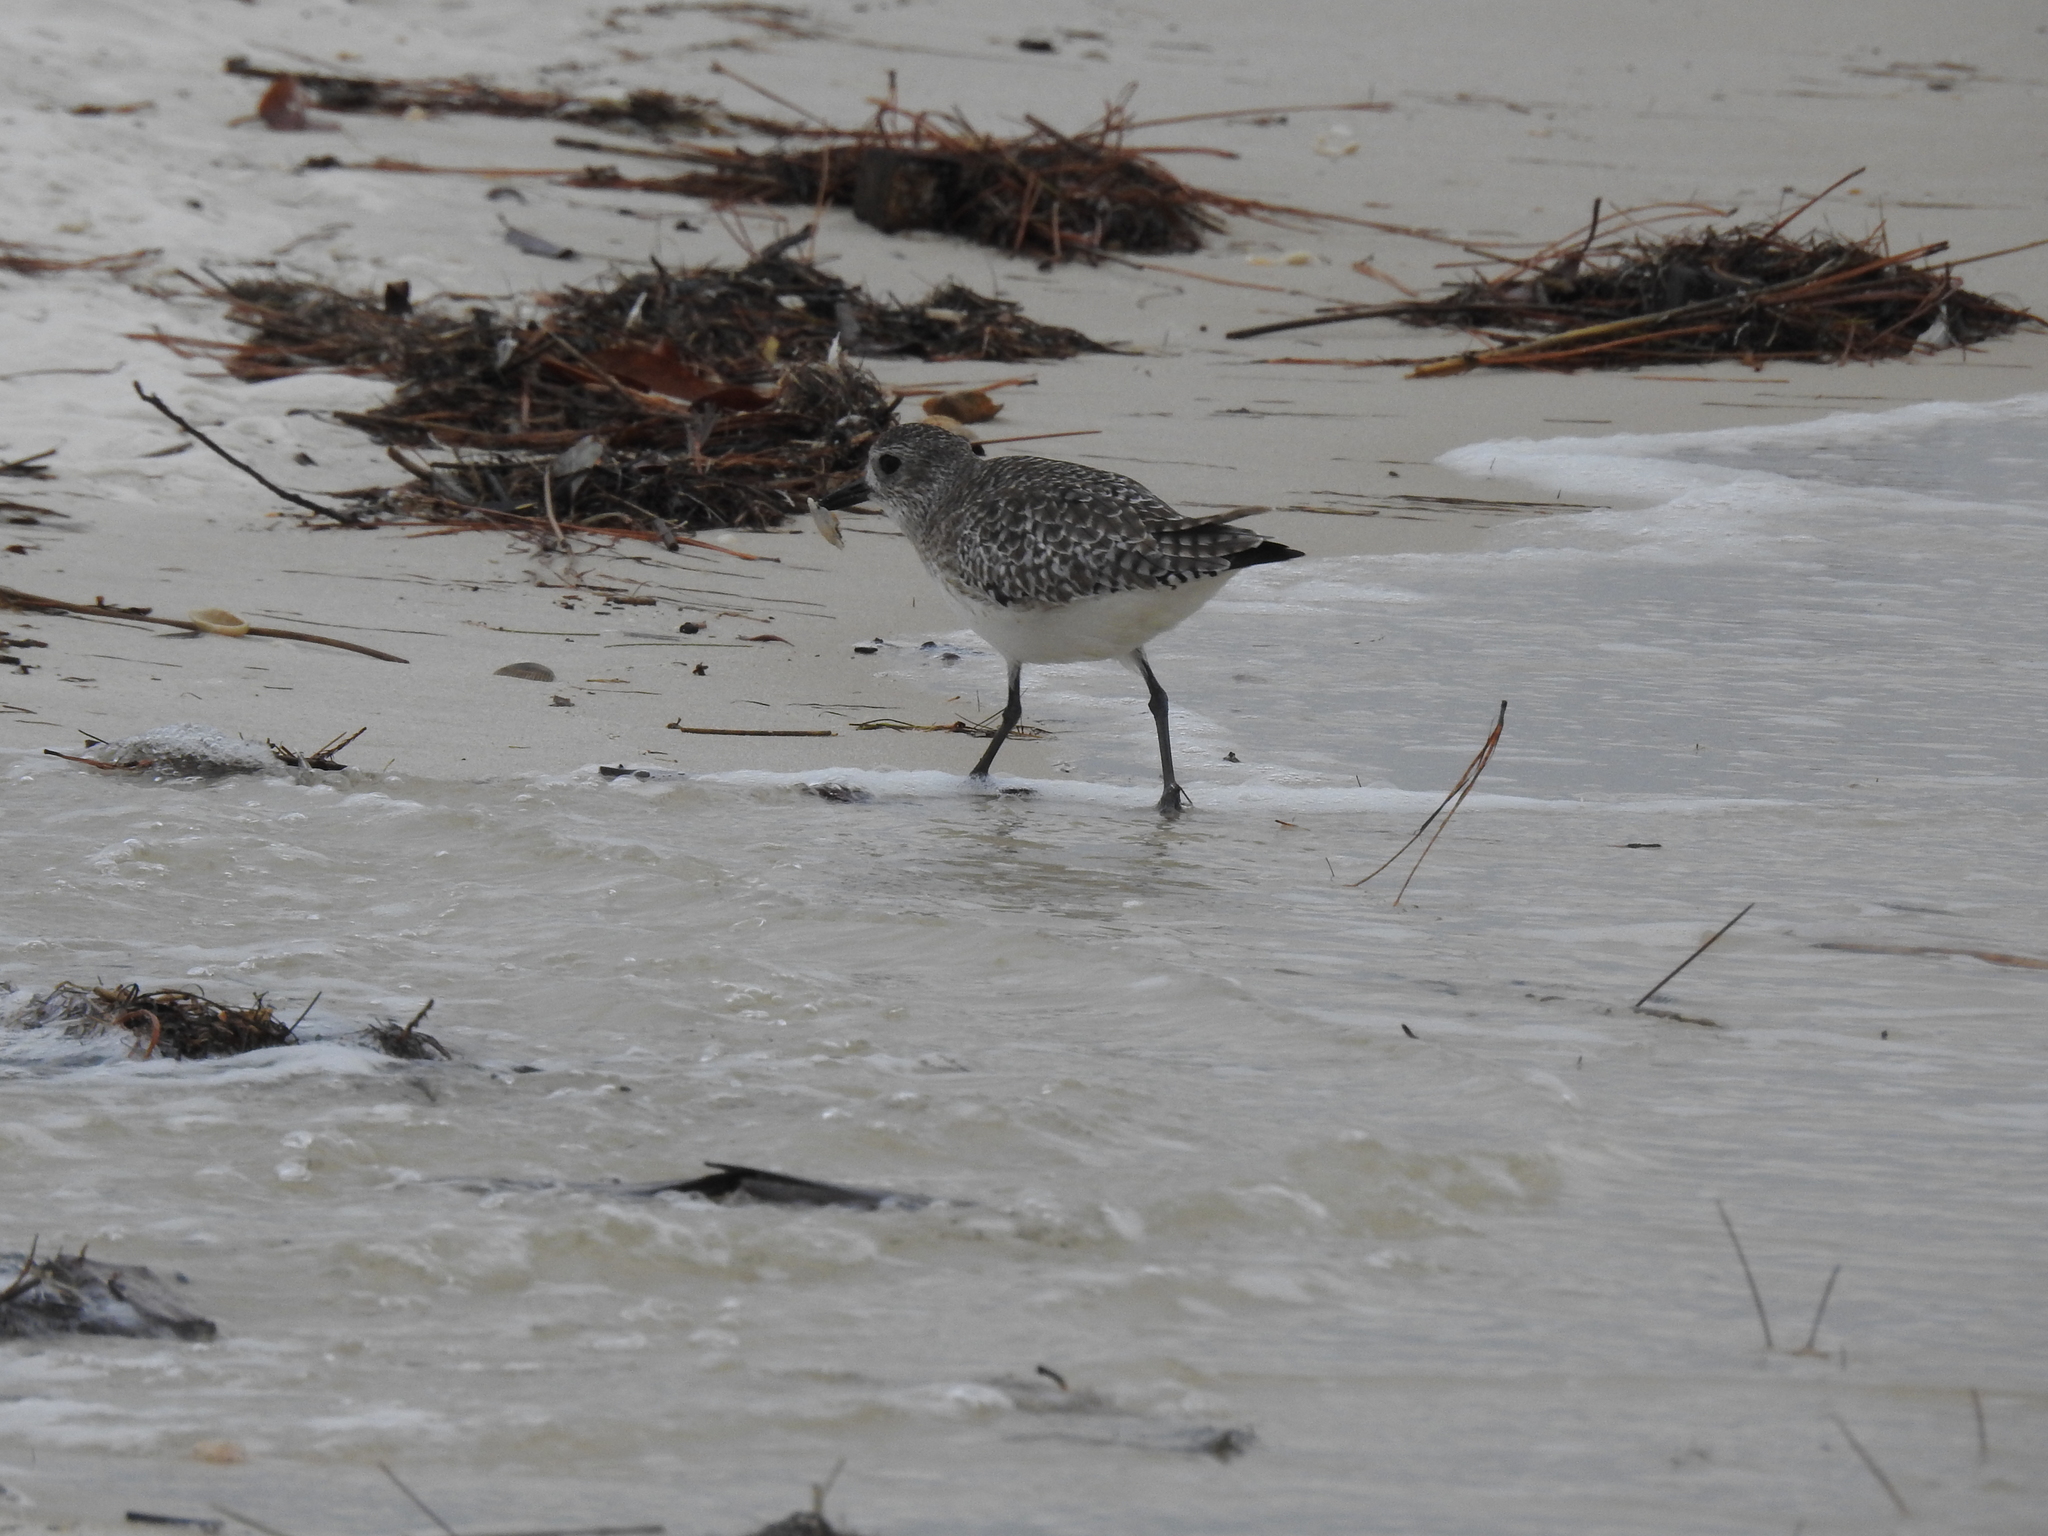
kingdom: Animalia
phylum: Chordata
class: Aves
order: Charadriiformes
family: Charadriidae
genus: Pluvialis
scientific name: Pluvialis squatarola
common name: Grey plover
